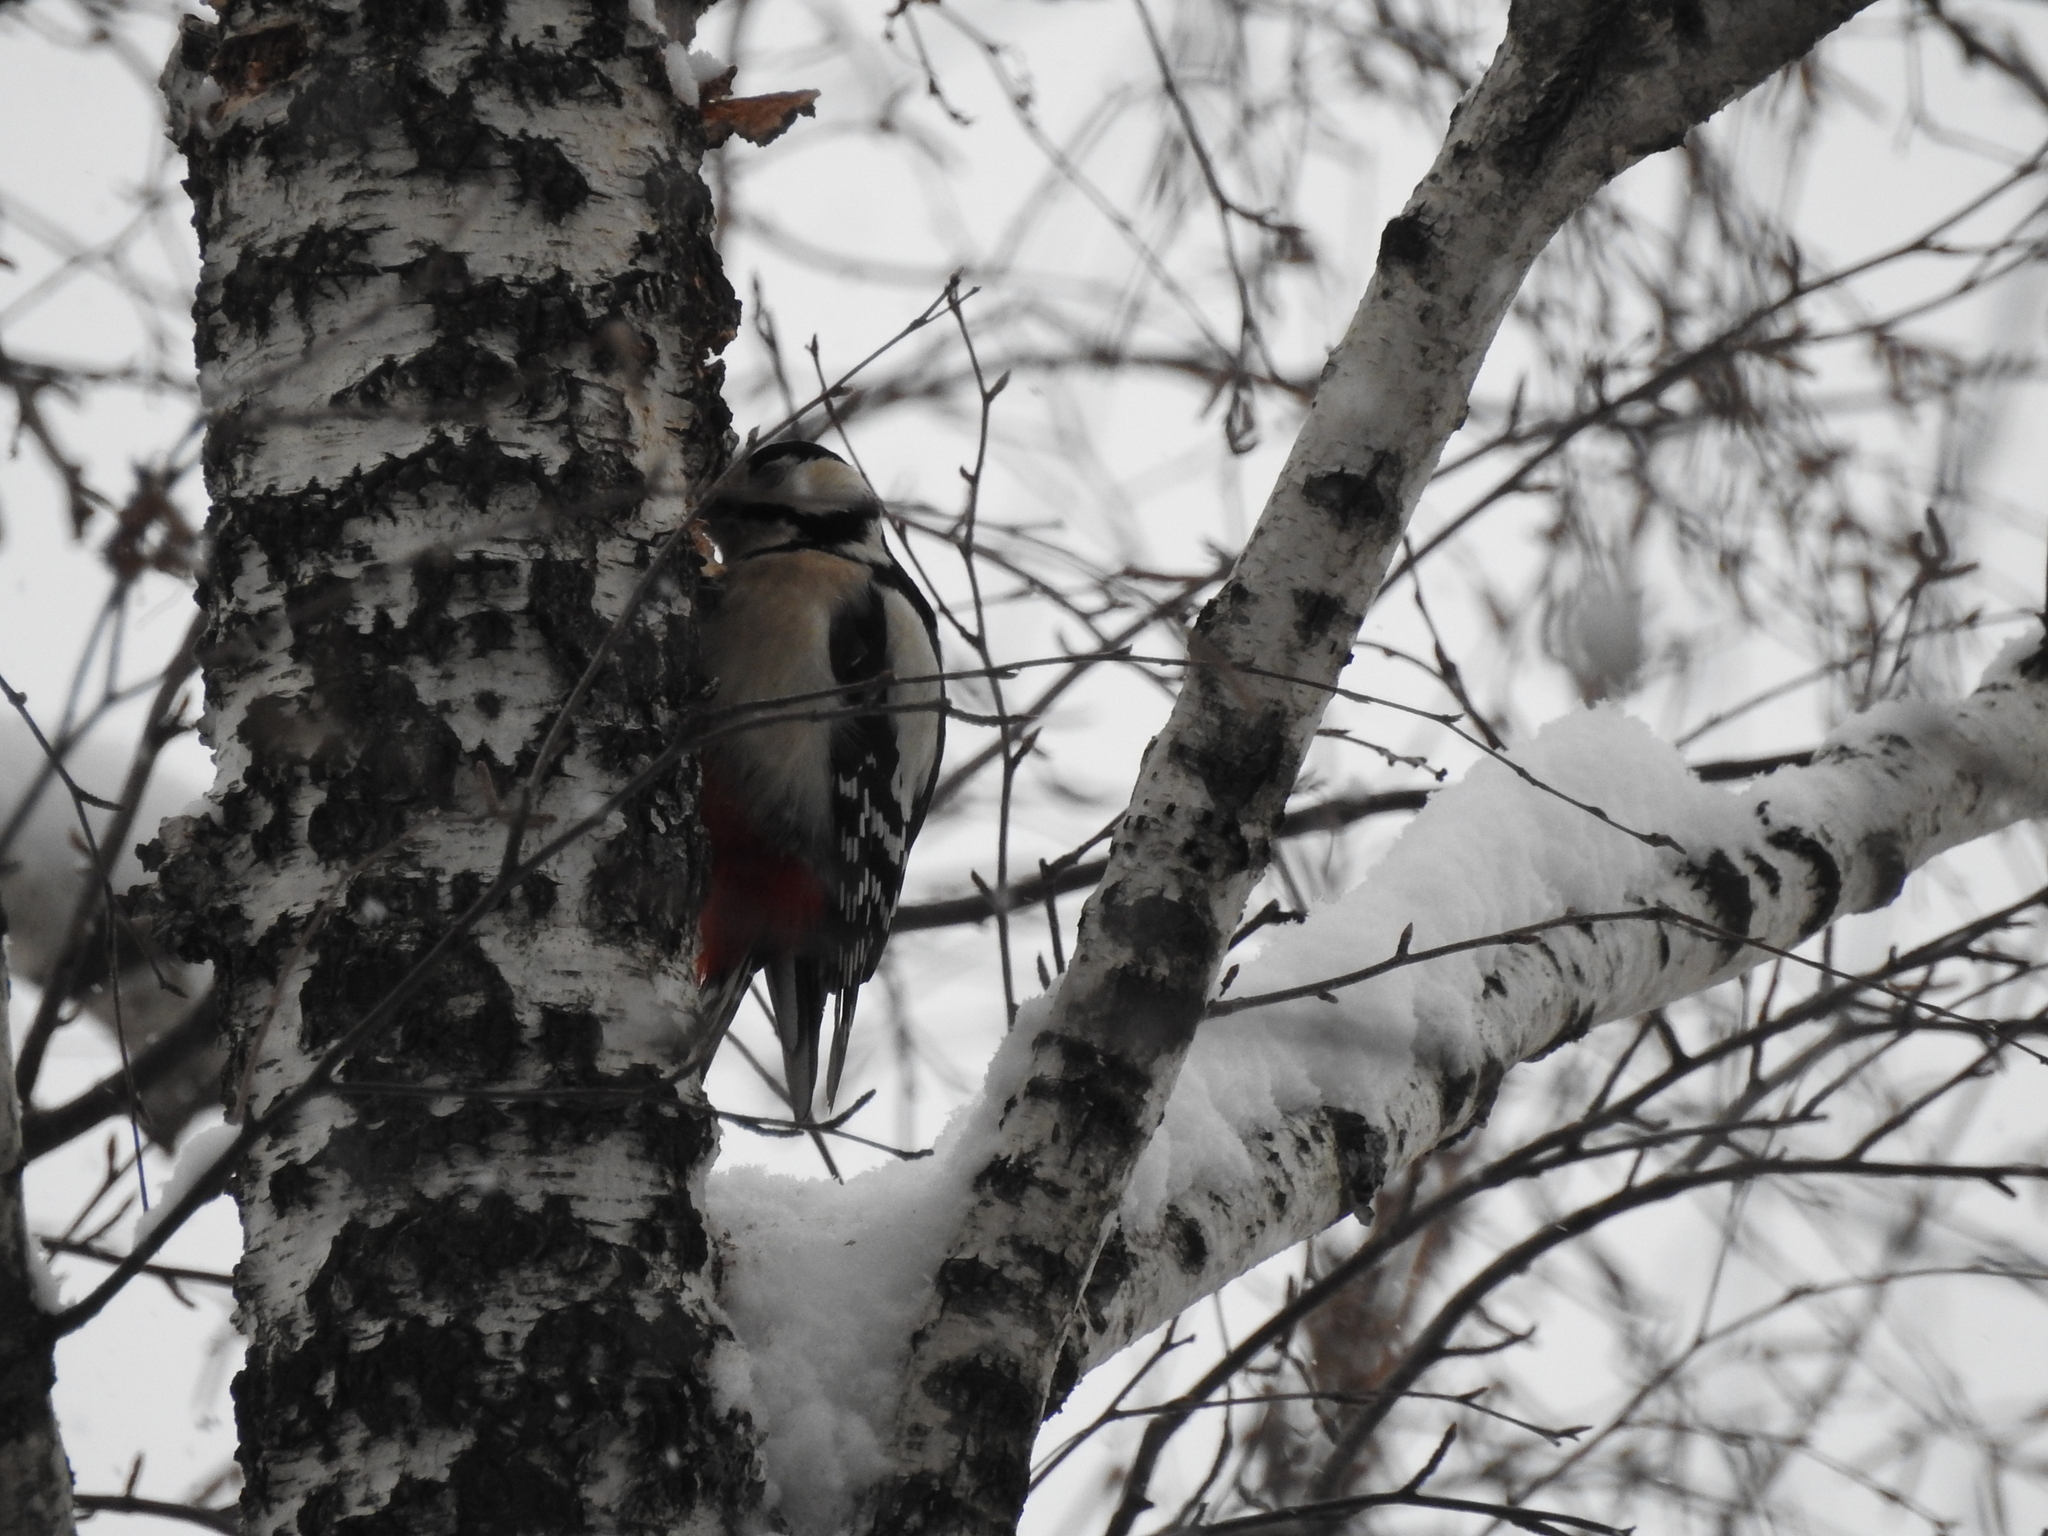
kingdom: Animalia
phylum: Chordata
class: Aves
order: Piciformes
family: Picidae
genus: Dendrocopos
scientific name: Dendrocopos major
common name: Great spotted woodpecker
